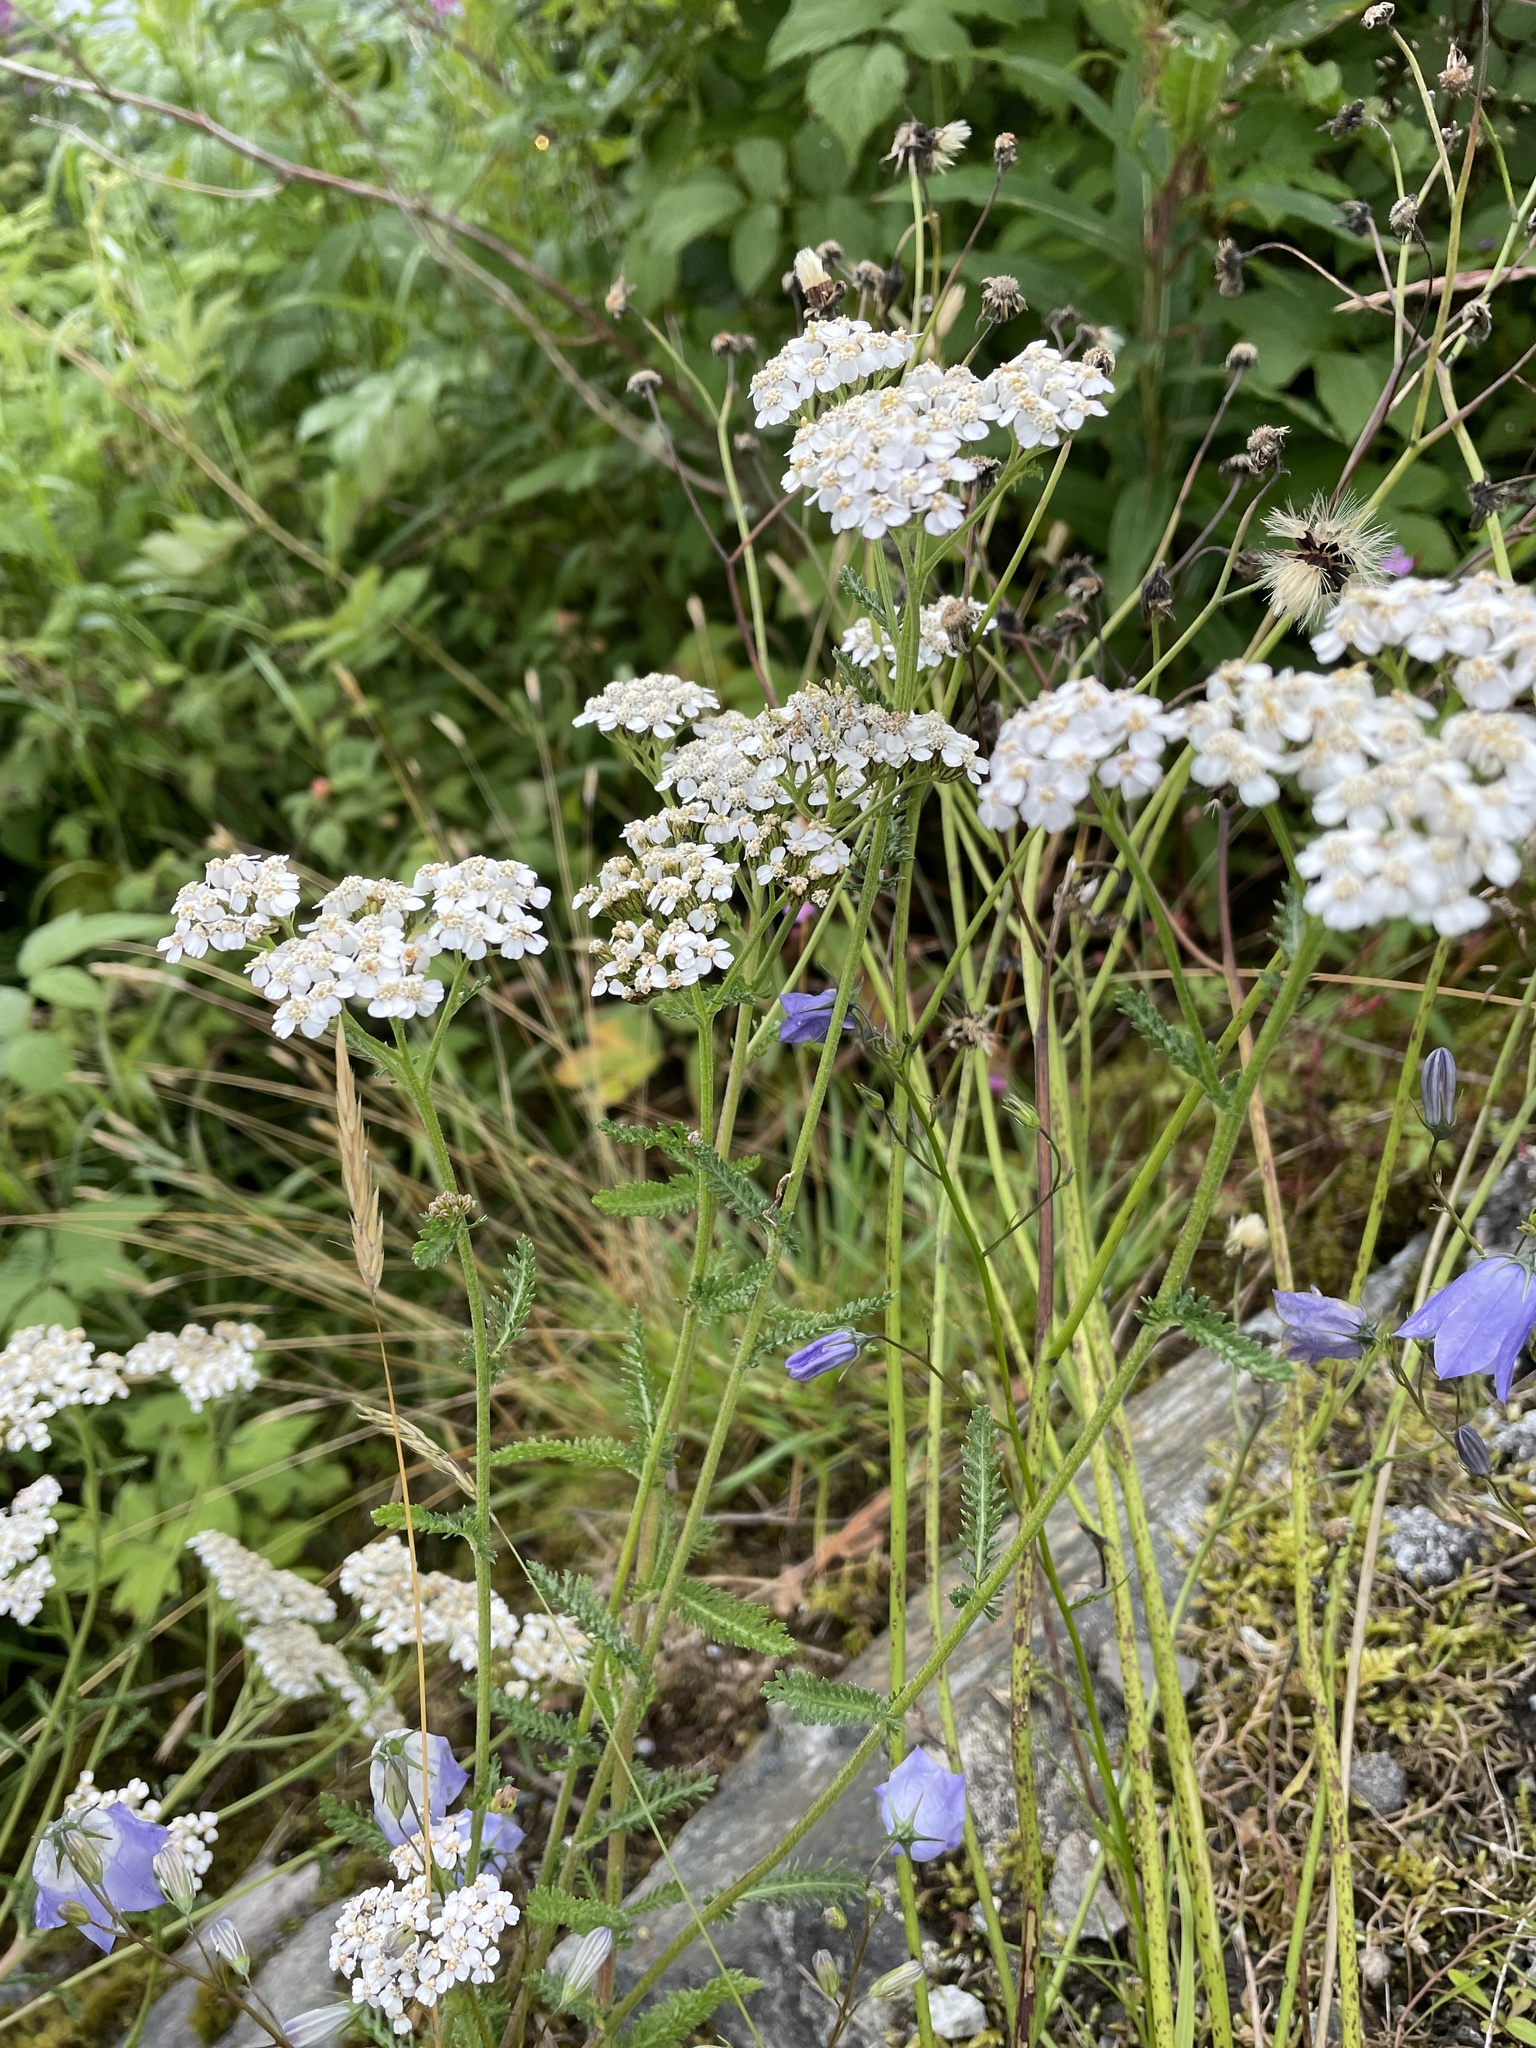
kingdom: Plantae
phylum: Tracheophyta
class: Magnoliopsida
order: Asterales
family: Asteraceae
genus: Achillea
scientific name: Achillea millefolium
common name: Yarrow
